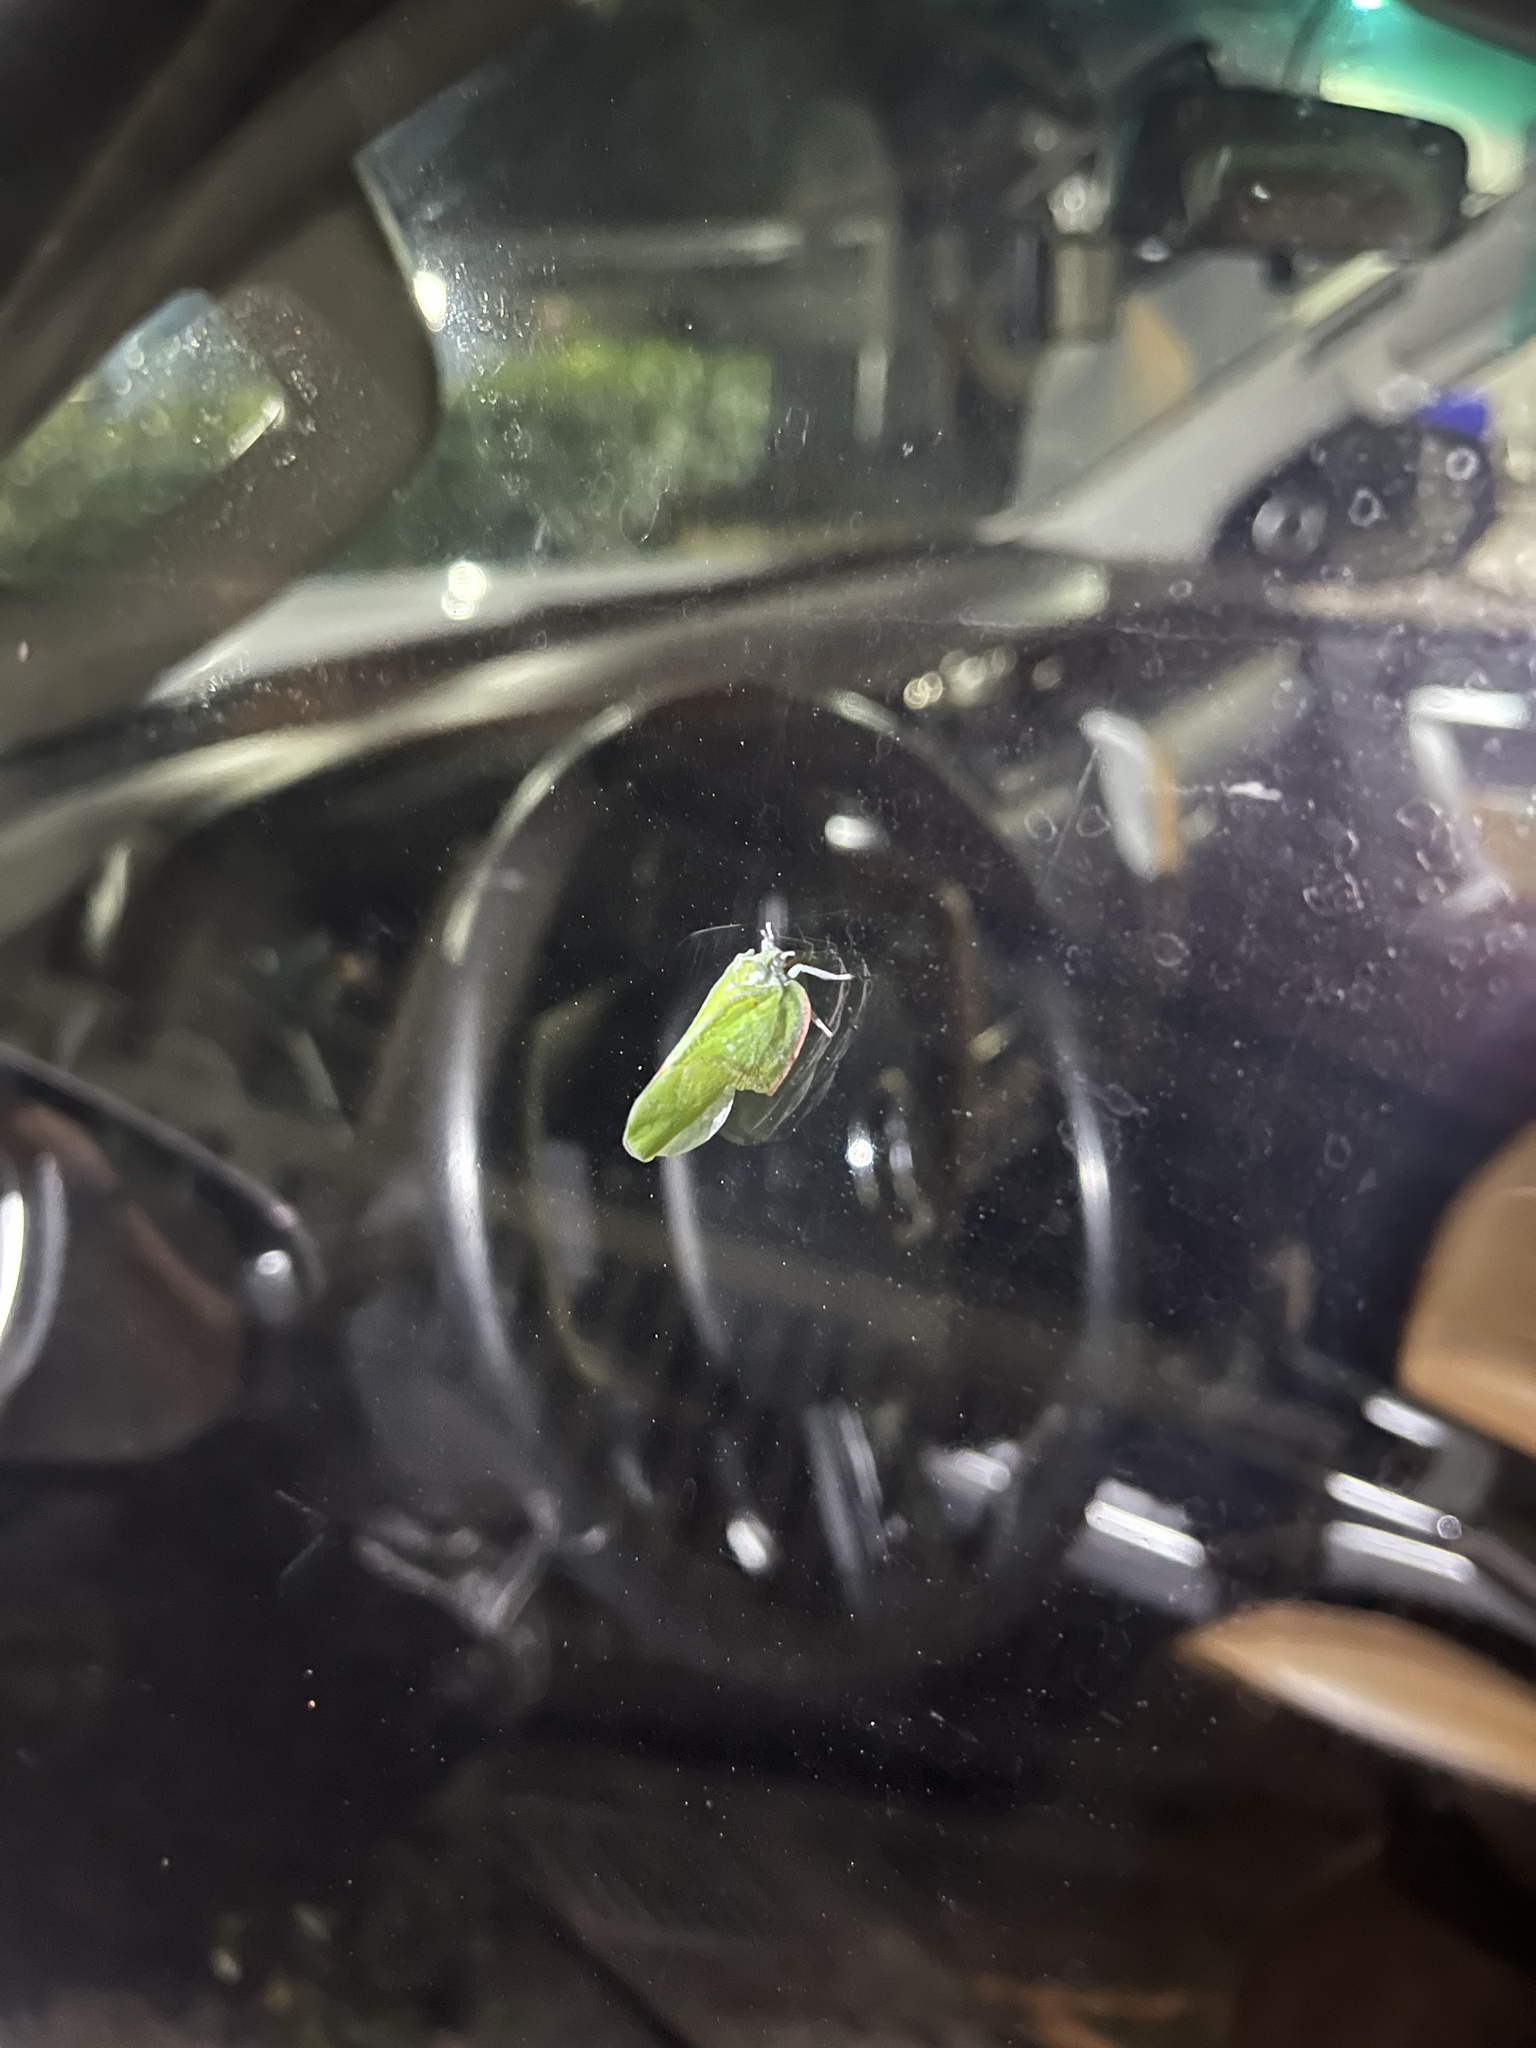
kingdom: Animalia
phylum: Arthropoda
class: Insecta
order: Hemiptera
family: Flatidae
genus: Flatida
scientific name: Flatida marginella
